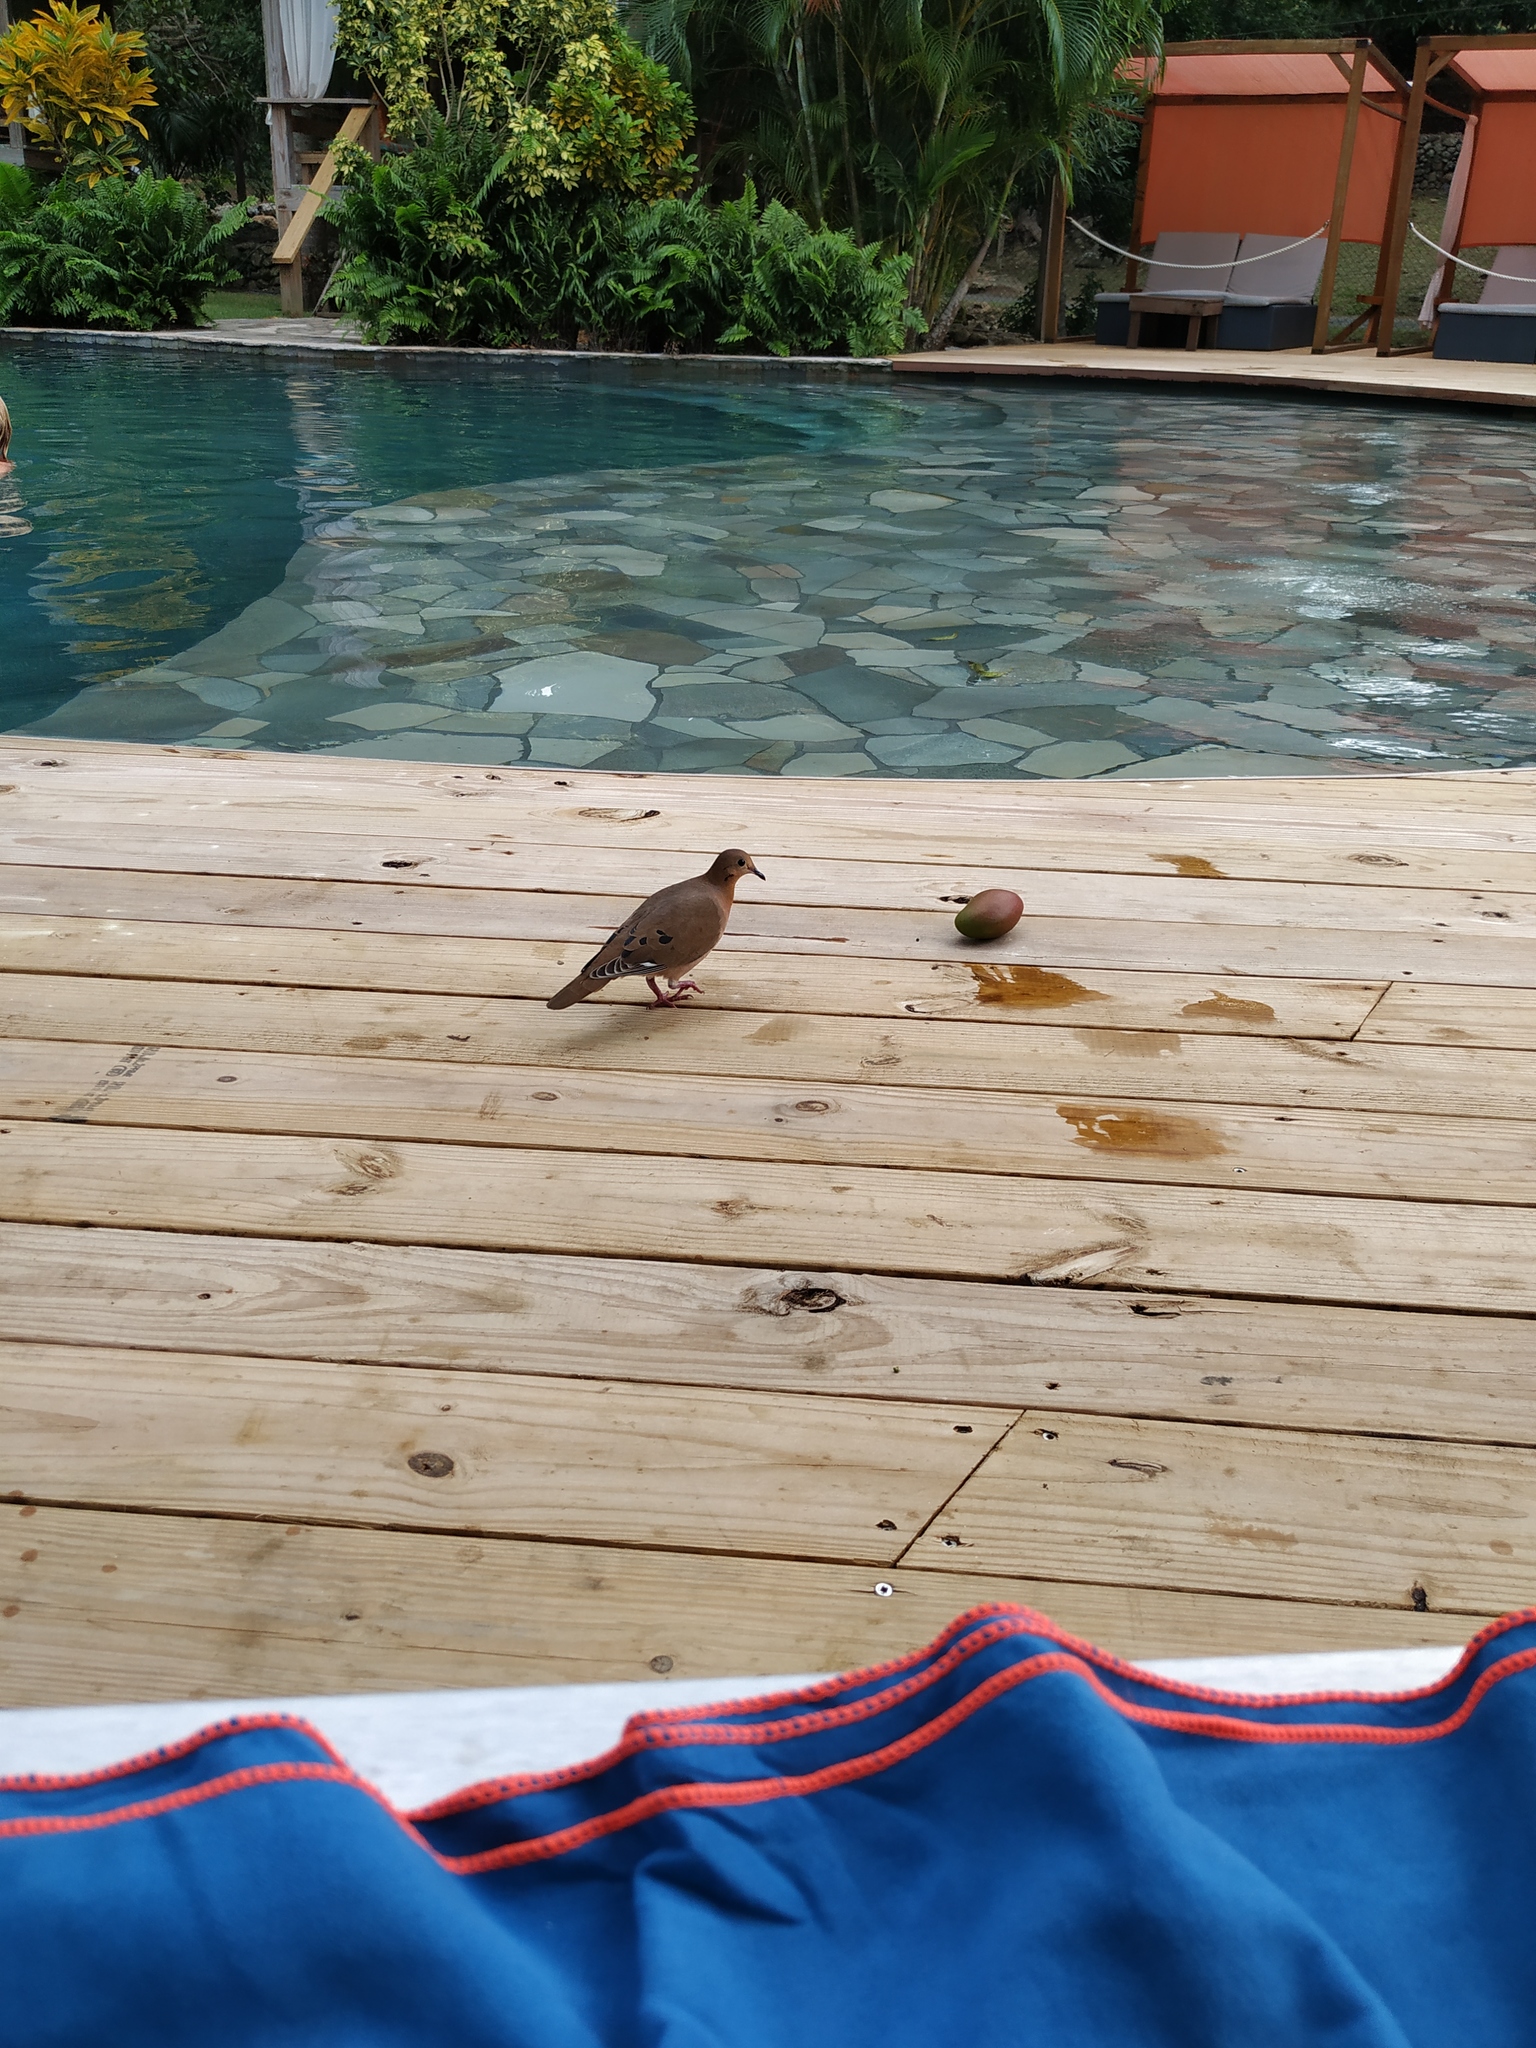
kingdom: Animalia
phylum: Chordata
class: Aves
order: Columbiformes
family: Columbidae
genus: Zenaida
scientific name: Zenaida aurita
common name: Zenaida dove
